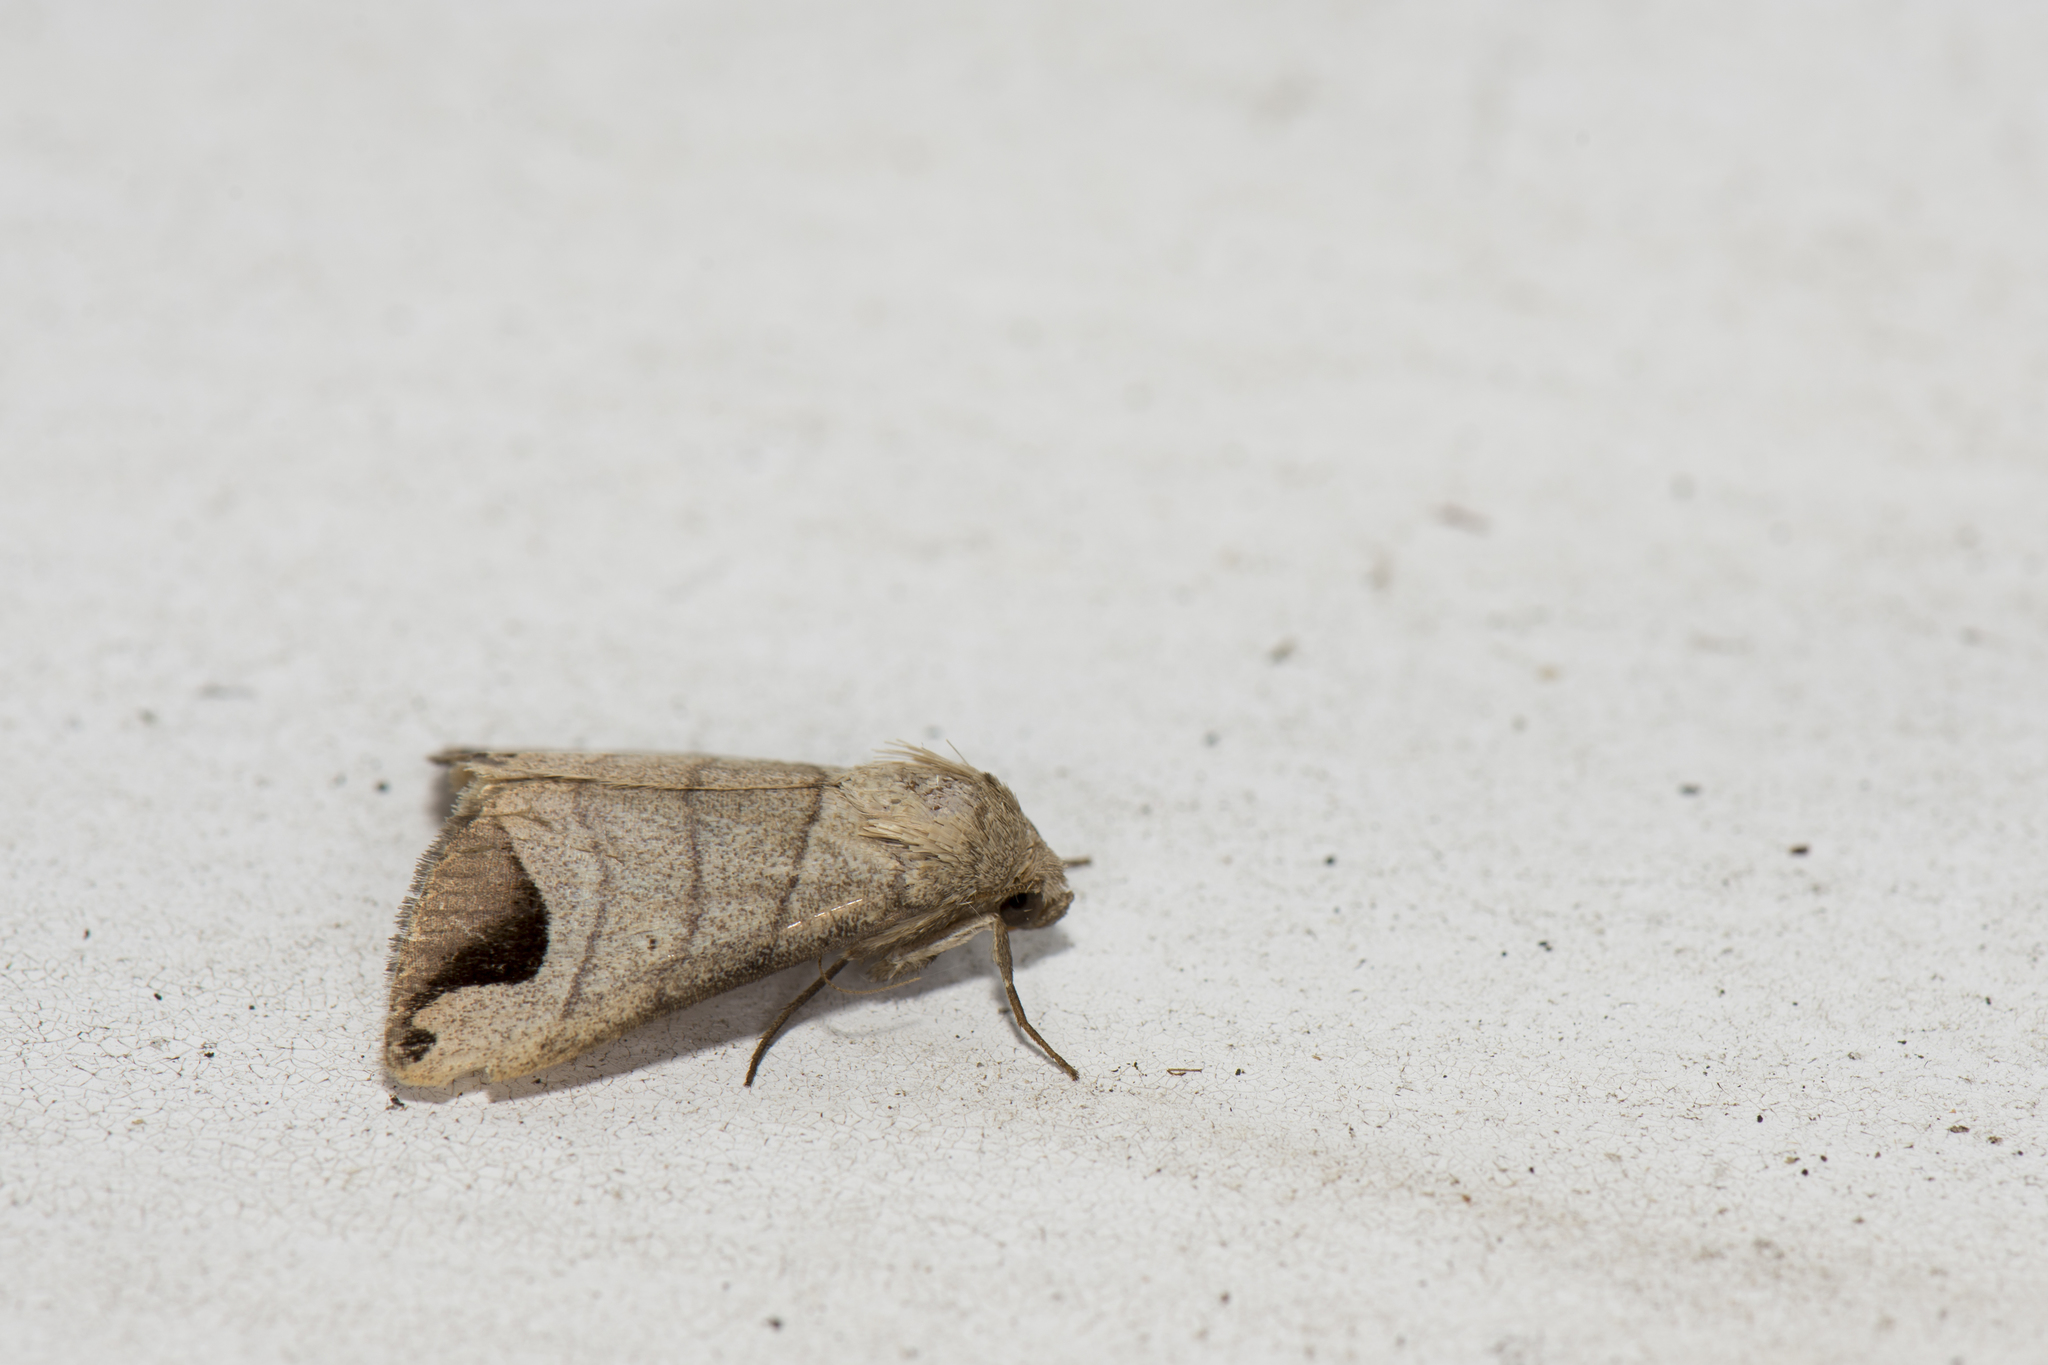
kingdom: Animalia
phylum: Arthropoda
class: Insecta
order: Lepidoptera
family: Erebidae
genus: Bocula
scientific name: Bocula marginata
